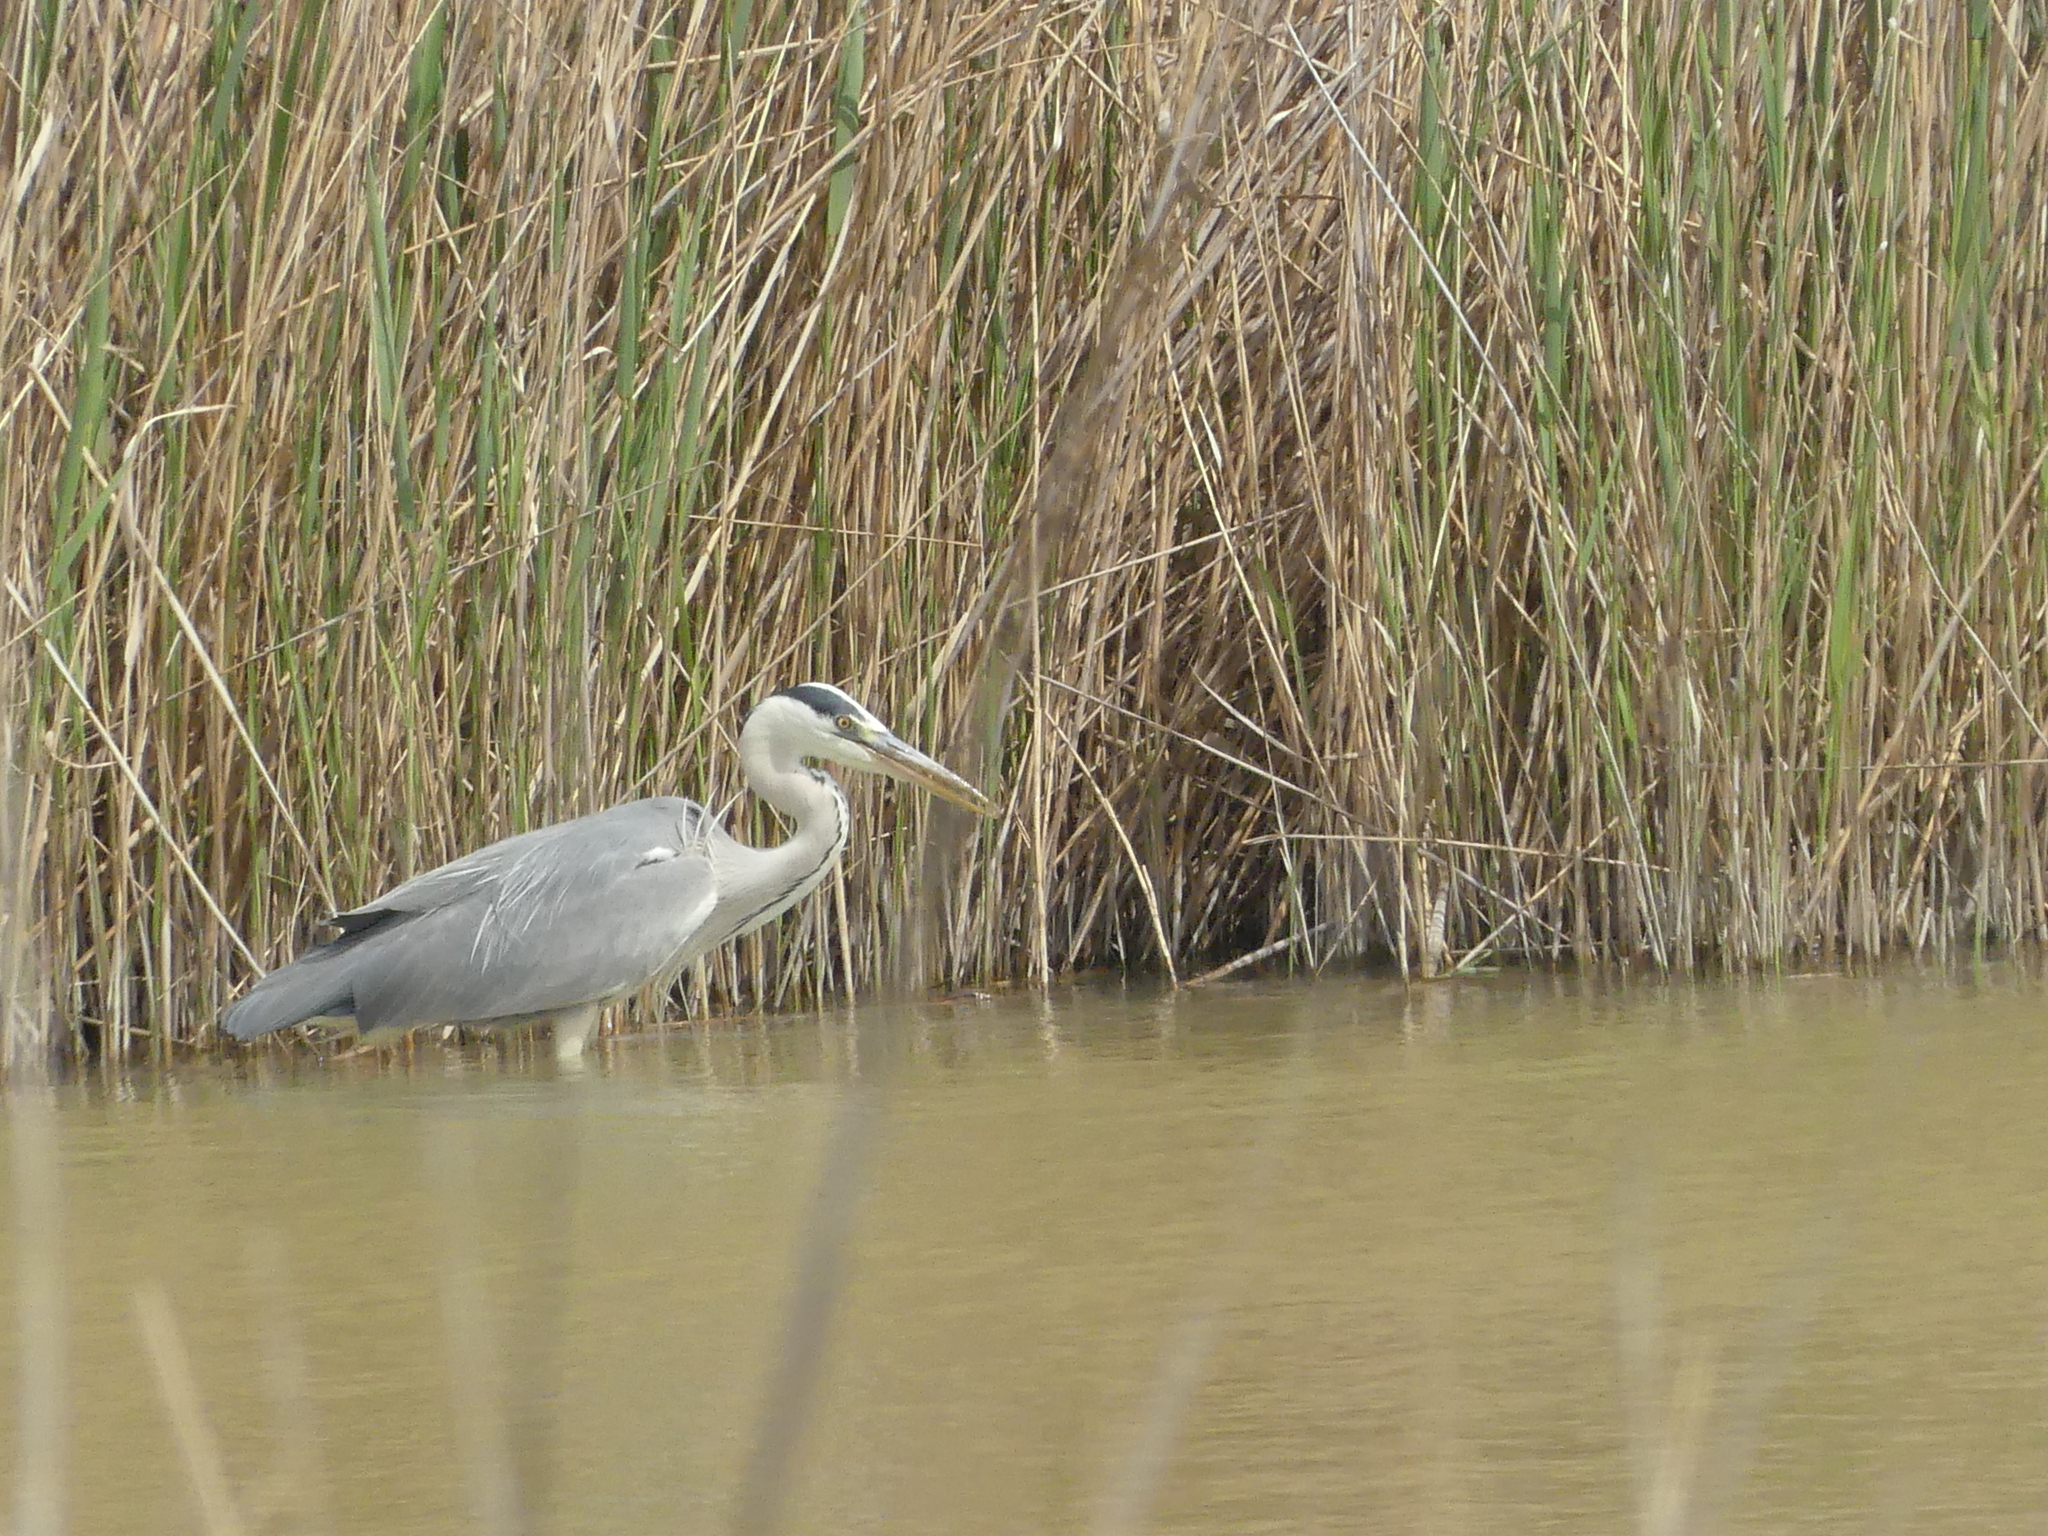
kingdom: Animalia
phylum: Chordata
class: Aves
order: Pelecaniformes
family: Ardeidae
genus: Ardea
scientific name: Ardea cinerea
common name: Grey heron
